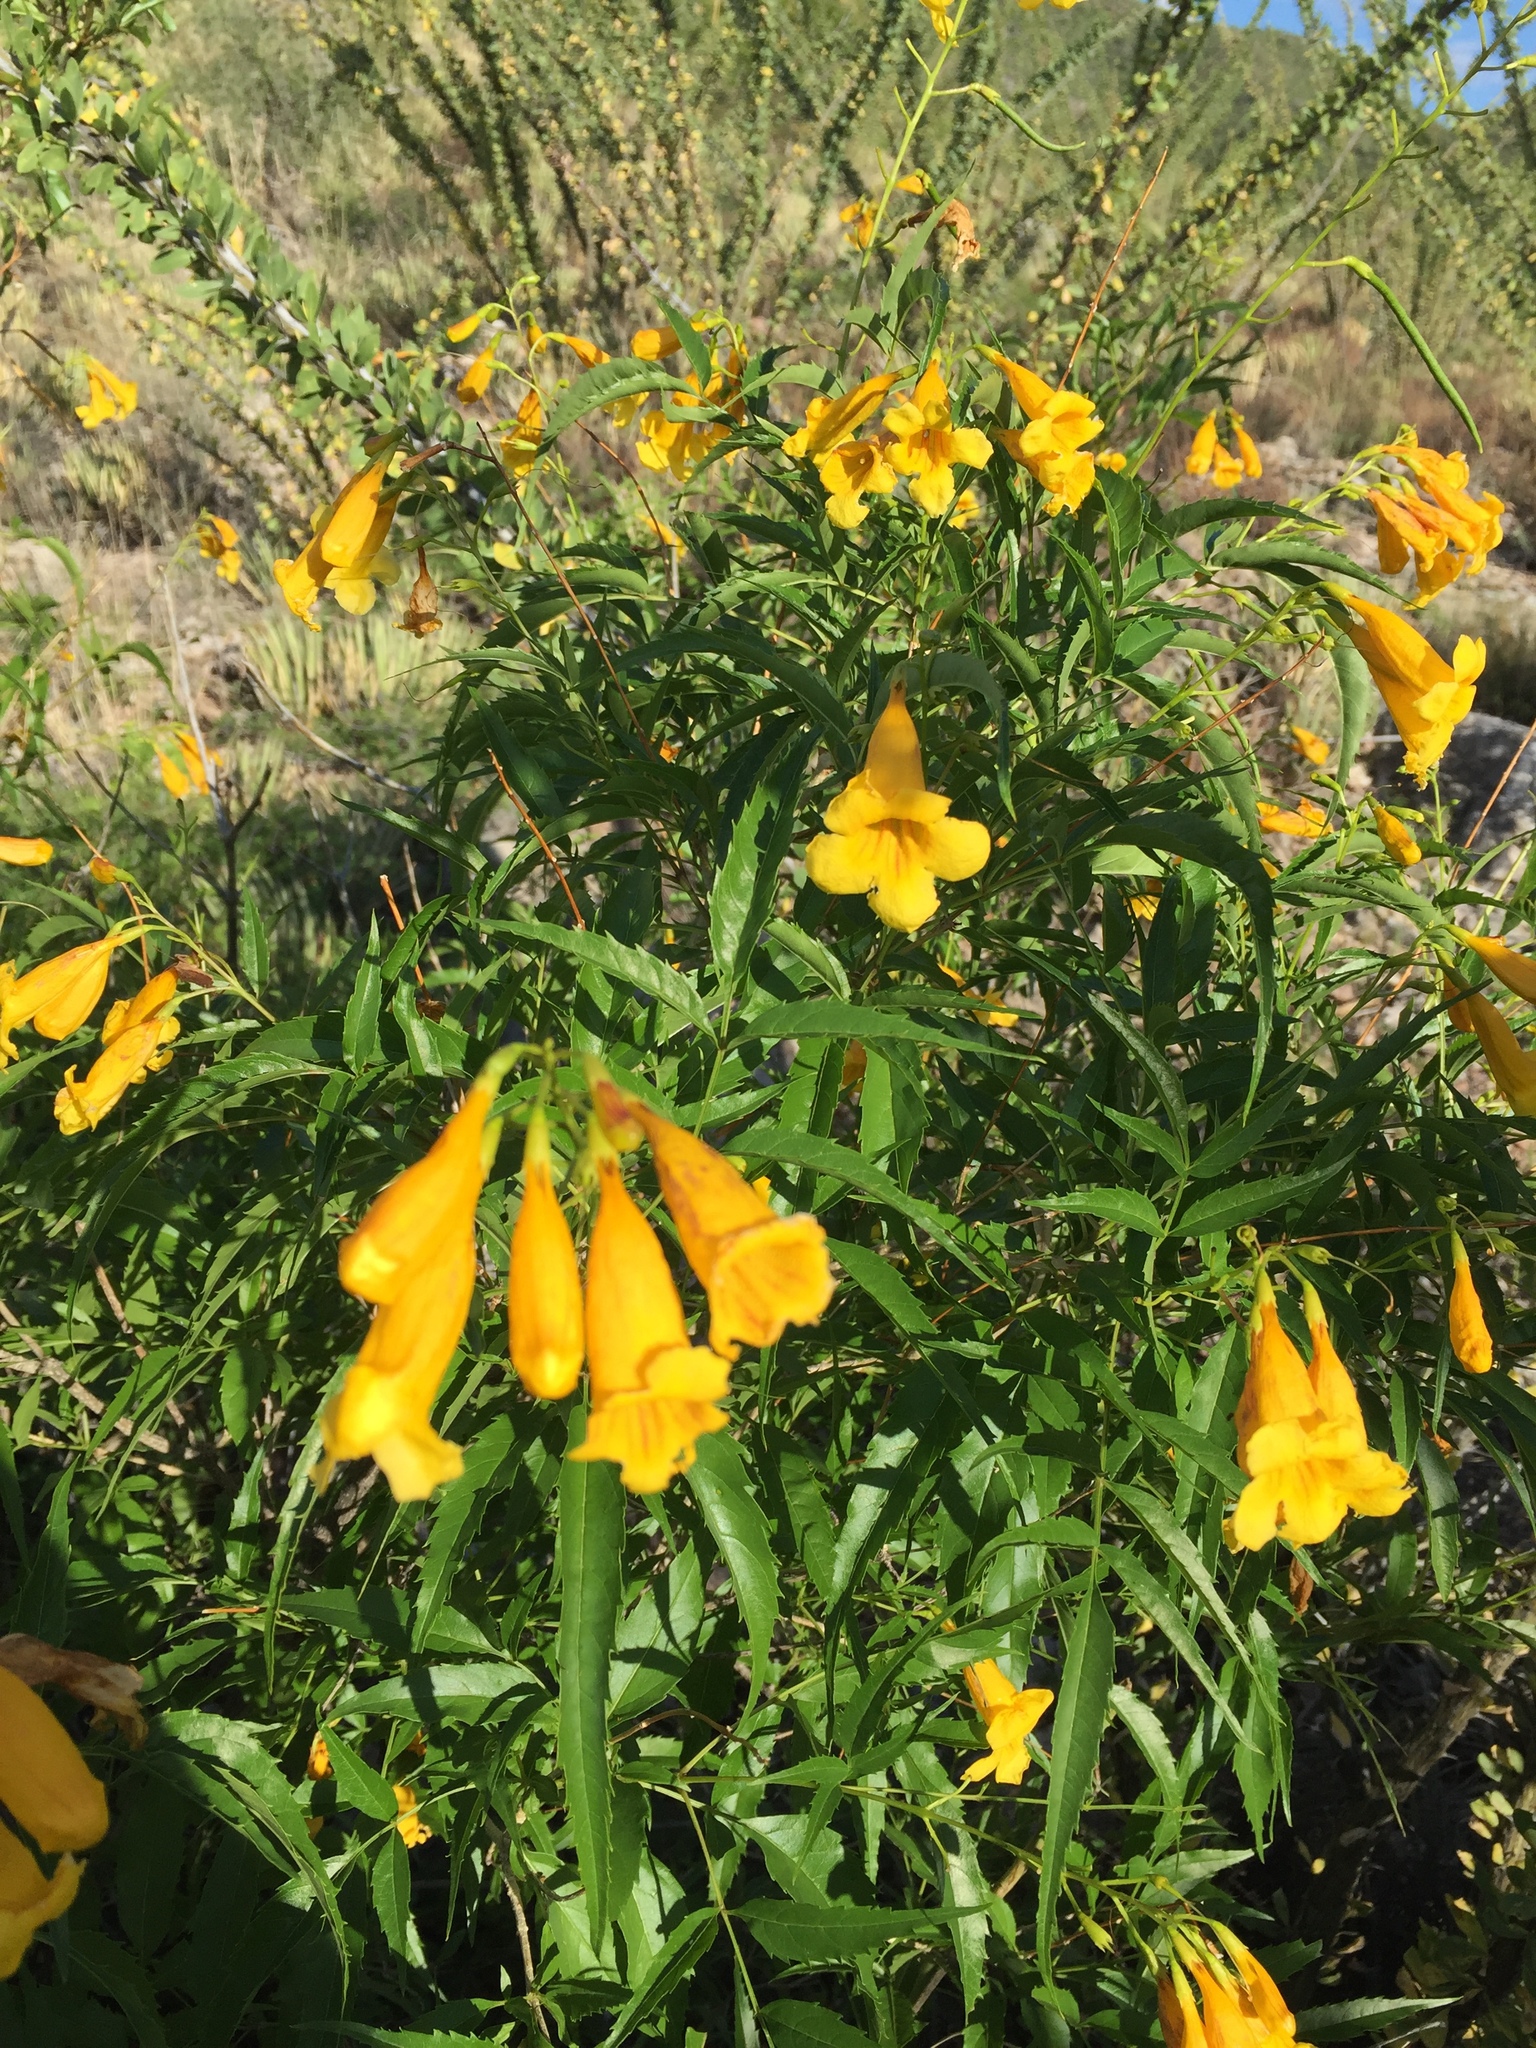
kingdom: Plantae
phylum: Tracheophyta
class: Magnoliopsida
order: Lamiales
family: Bignoniaceae
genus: Tecoma
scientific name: Tecoma stans
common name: Yellow trumpetbush
